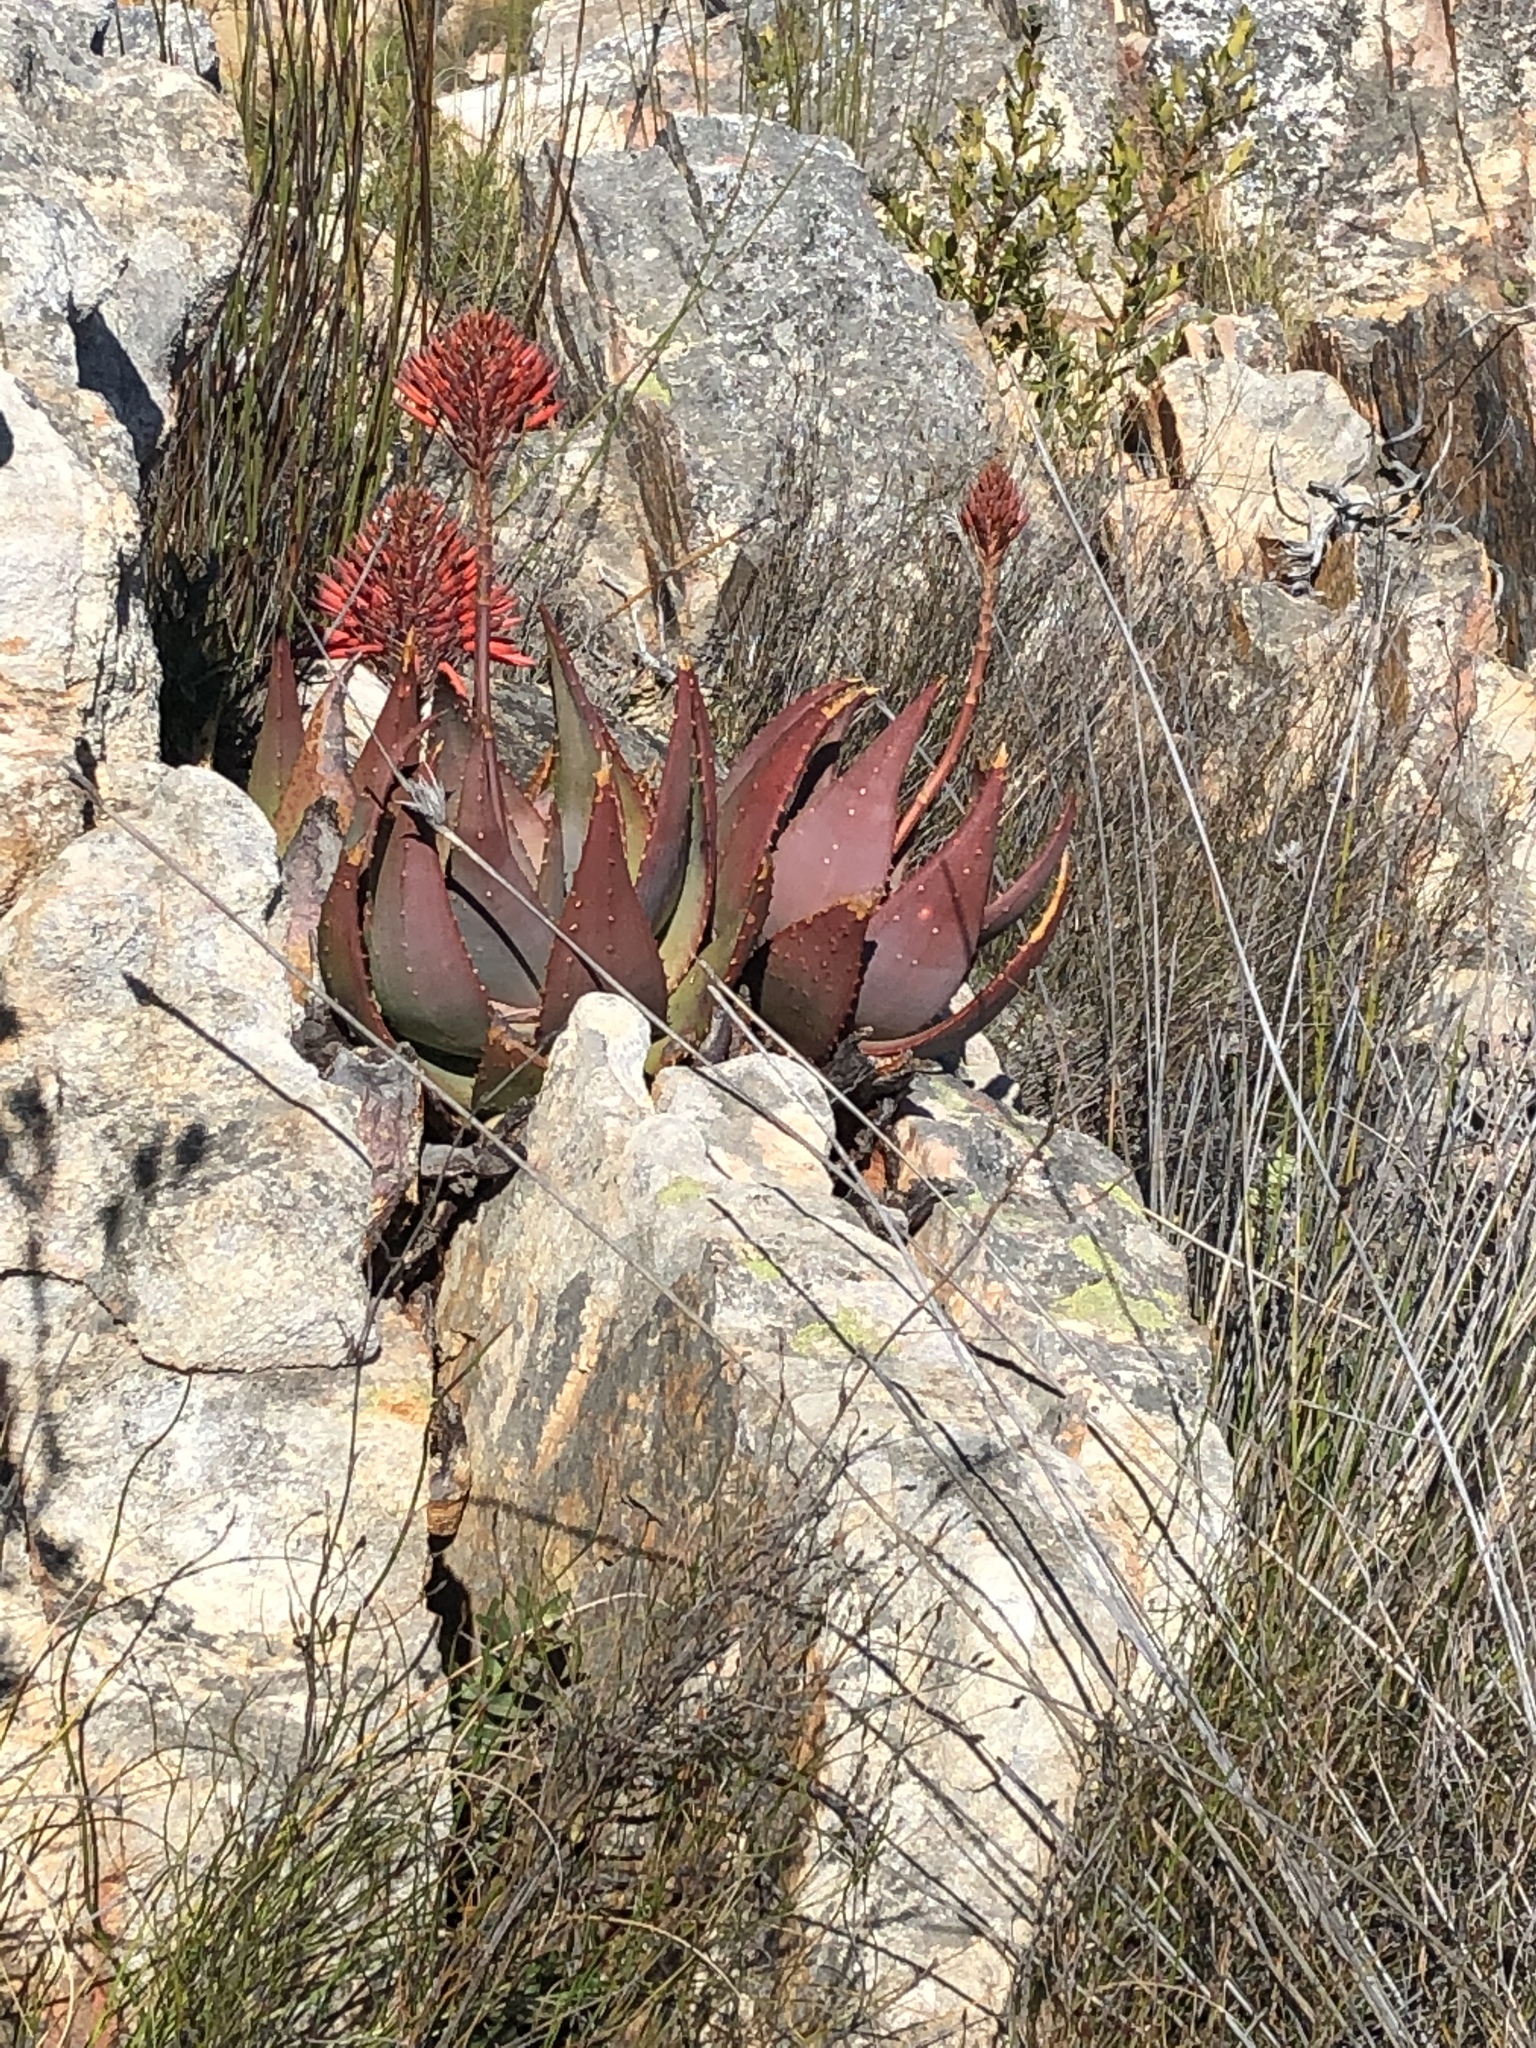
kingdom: Plantae
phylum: Tracheophyta
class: Liliopsida
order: Asparagales
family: Asphodelaceae
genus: Aloe
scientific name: Aloe comptonii
